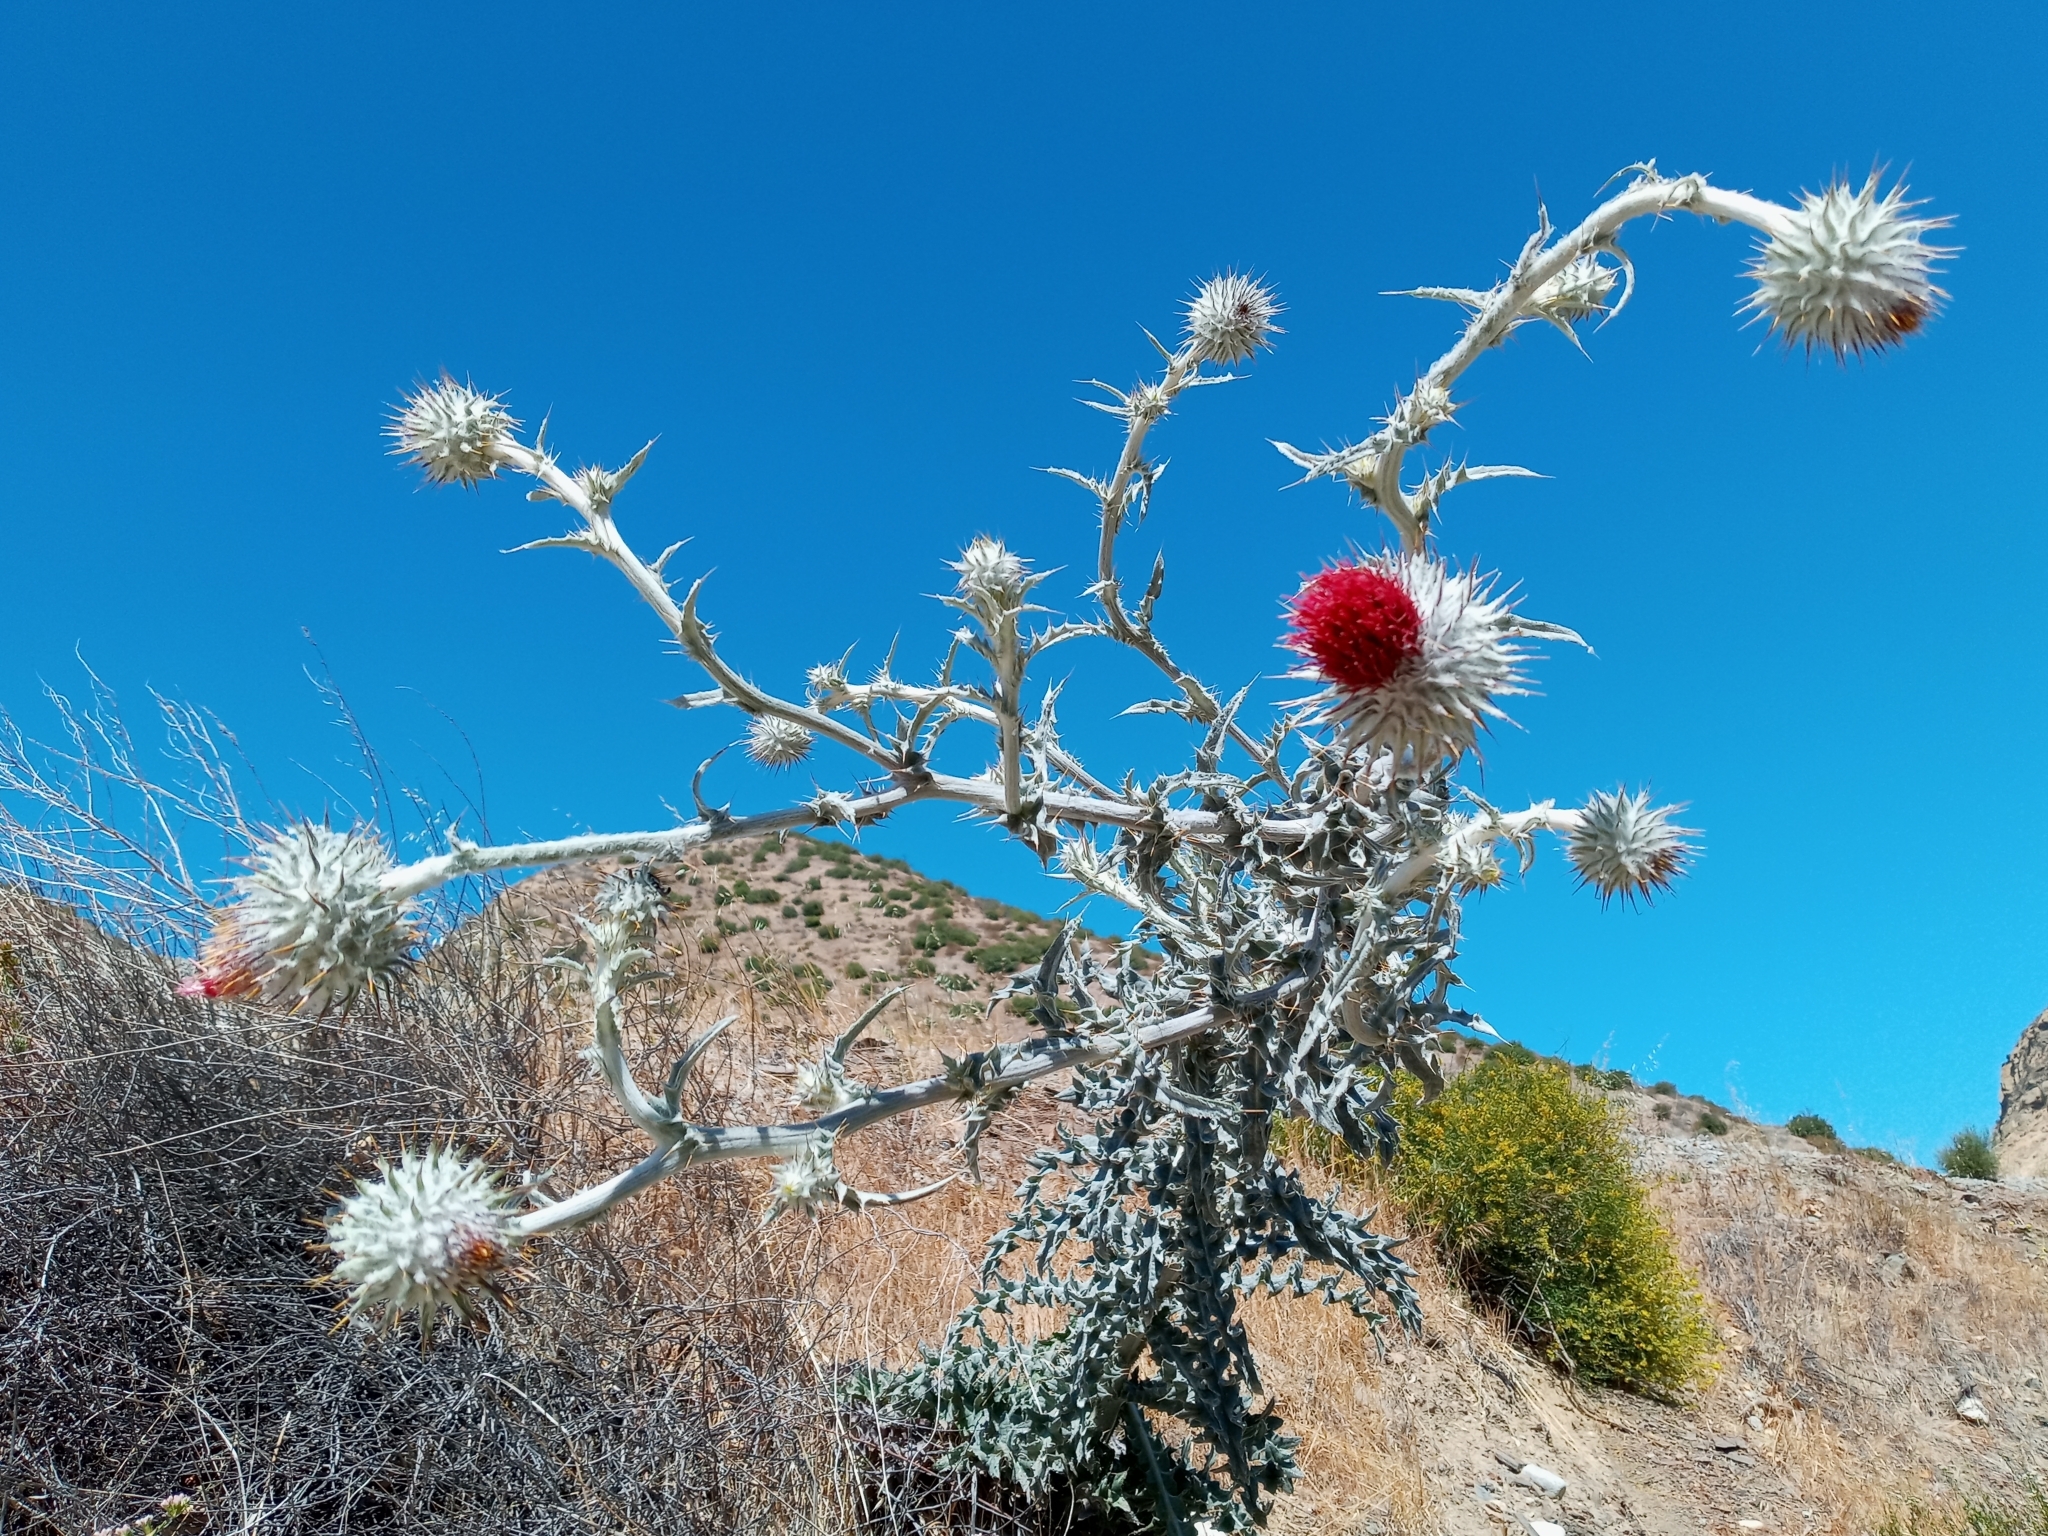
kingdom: Plantae
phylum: Tracheophyta
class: Magnoliopsida
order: Asterales
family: Asteraceae
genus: Cirsium
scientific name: Cirsium occidentale
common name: Western thistle
